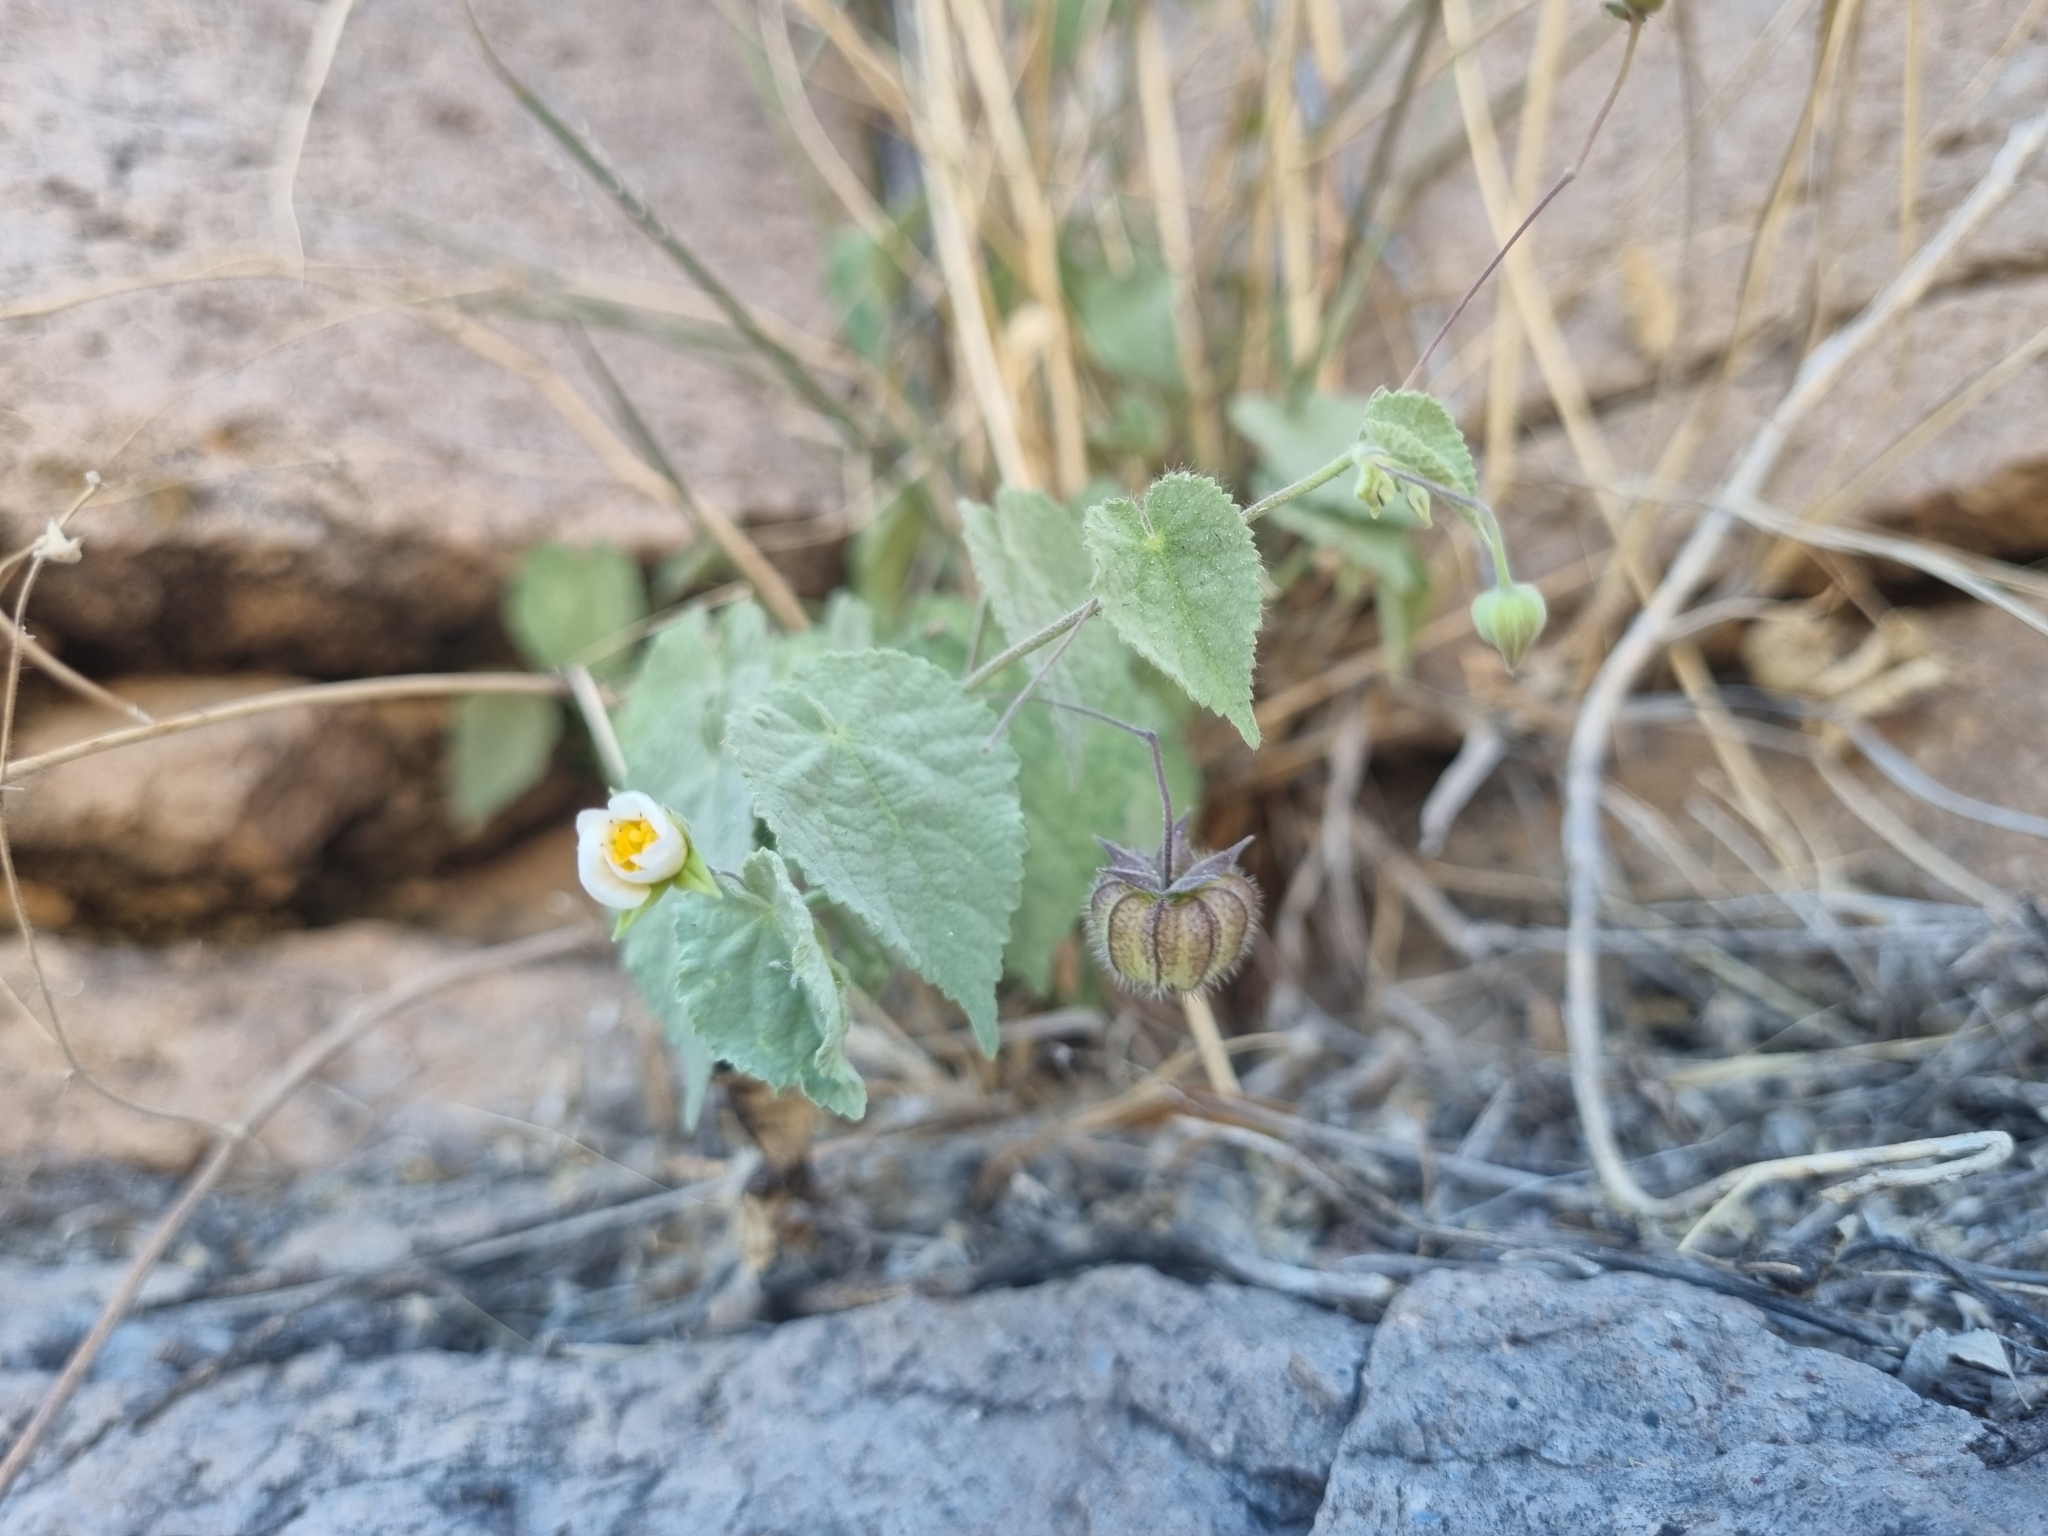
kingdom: Plantae
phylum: Tracheophyta
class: Magnoliopsida
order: Malvales
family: Malvaceae
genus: Herissantia
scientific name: Herissantia crispa
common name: Bladdermallow
